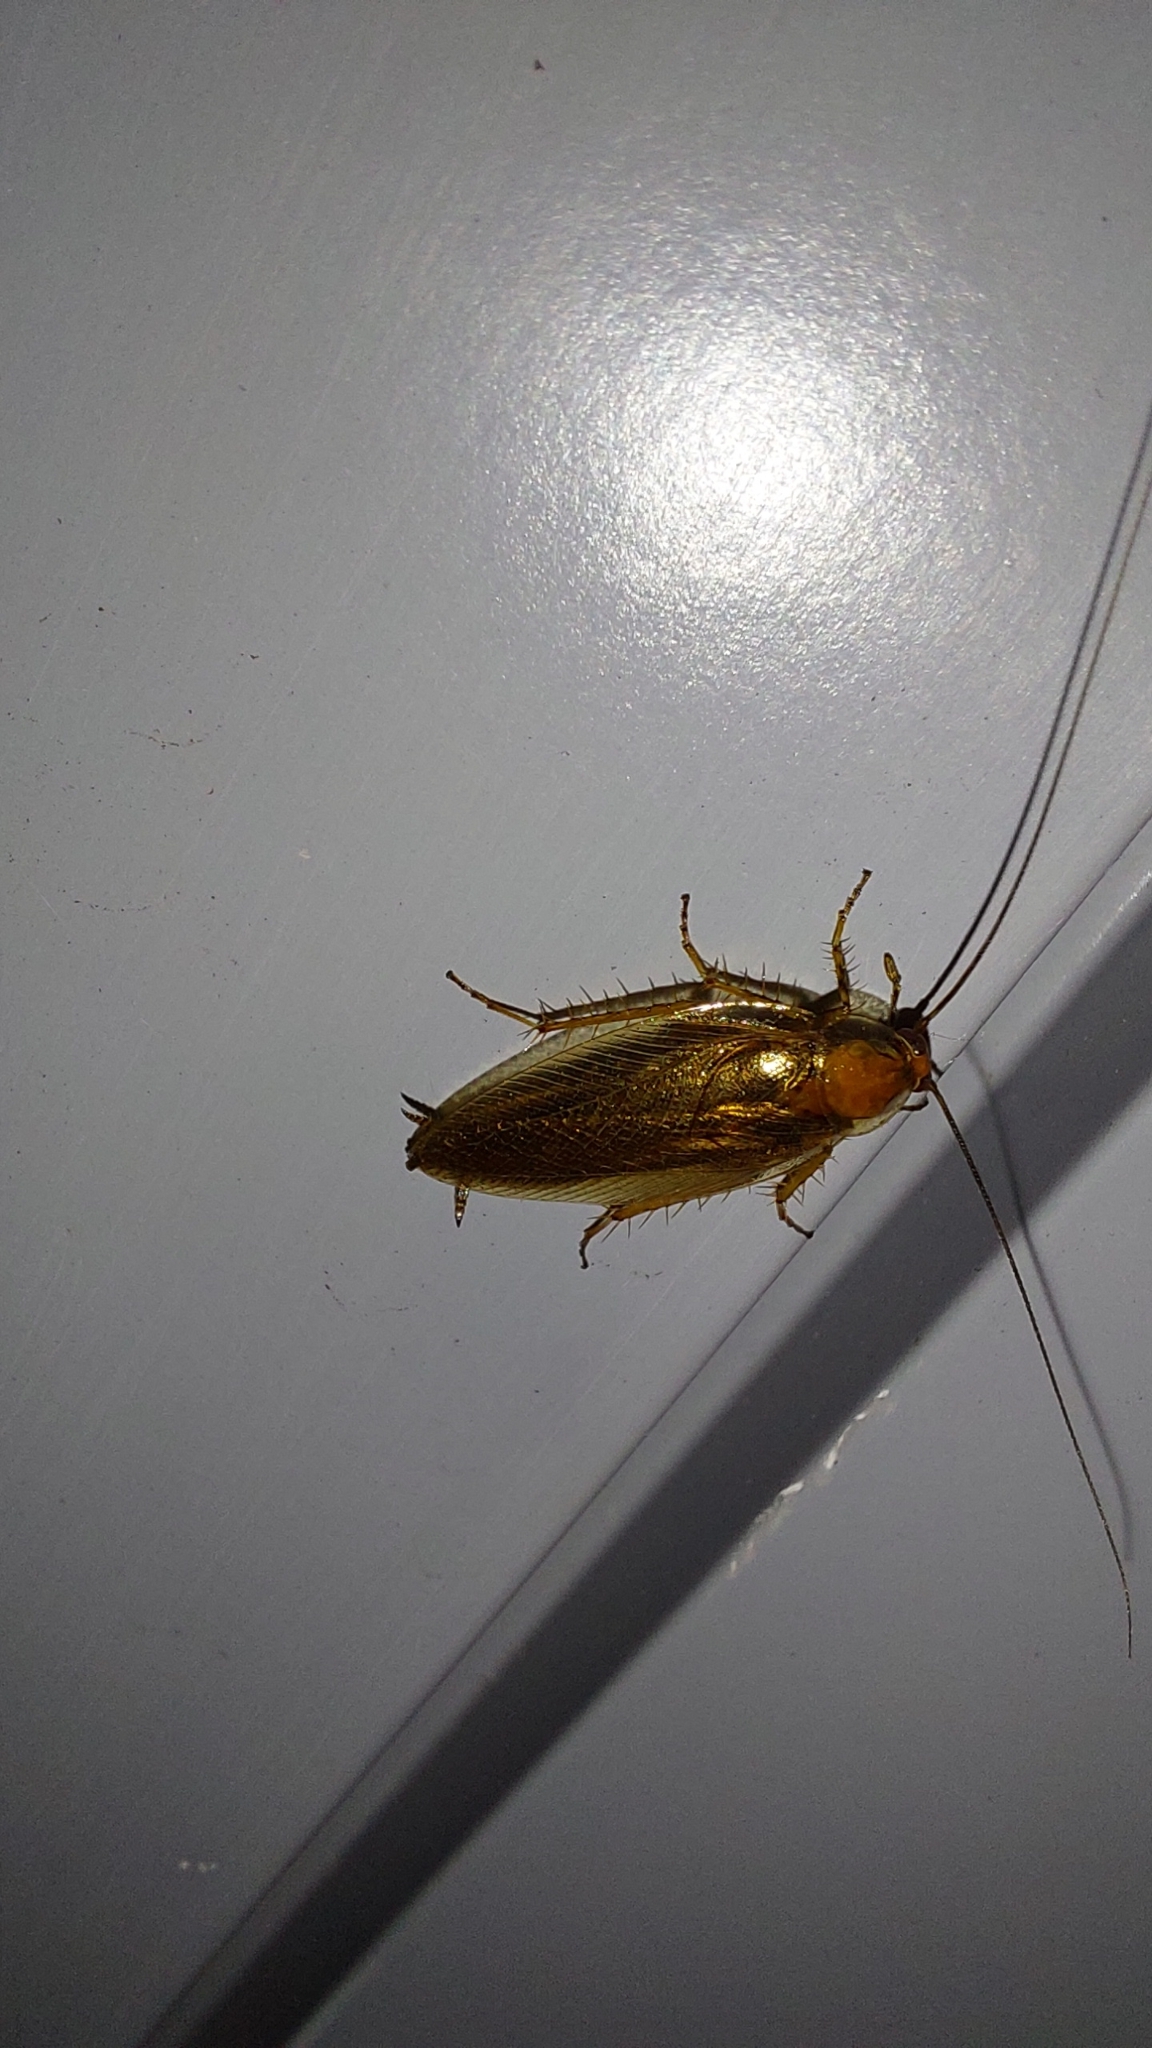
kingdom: Animalia
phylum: Arthropoda
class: Insecta
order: Blattodea
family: Ectobiidae
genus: Ectobius
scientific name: Ectobius vittiventris
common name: Garden cockroach
